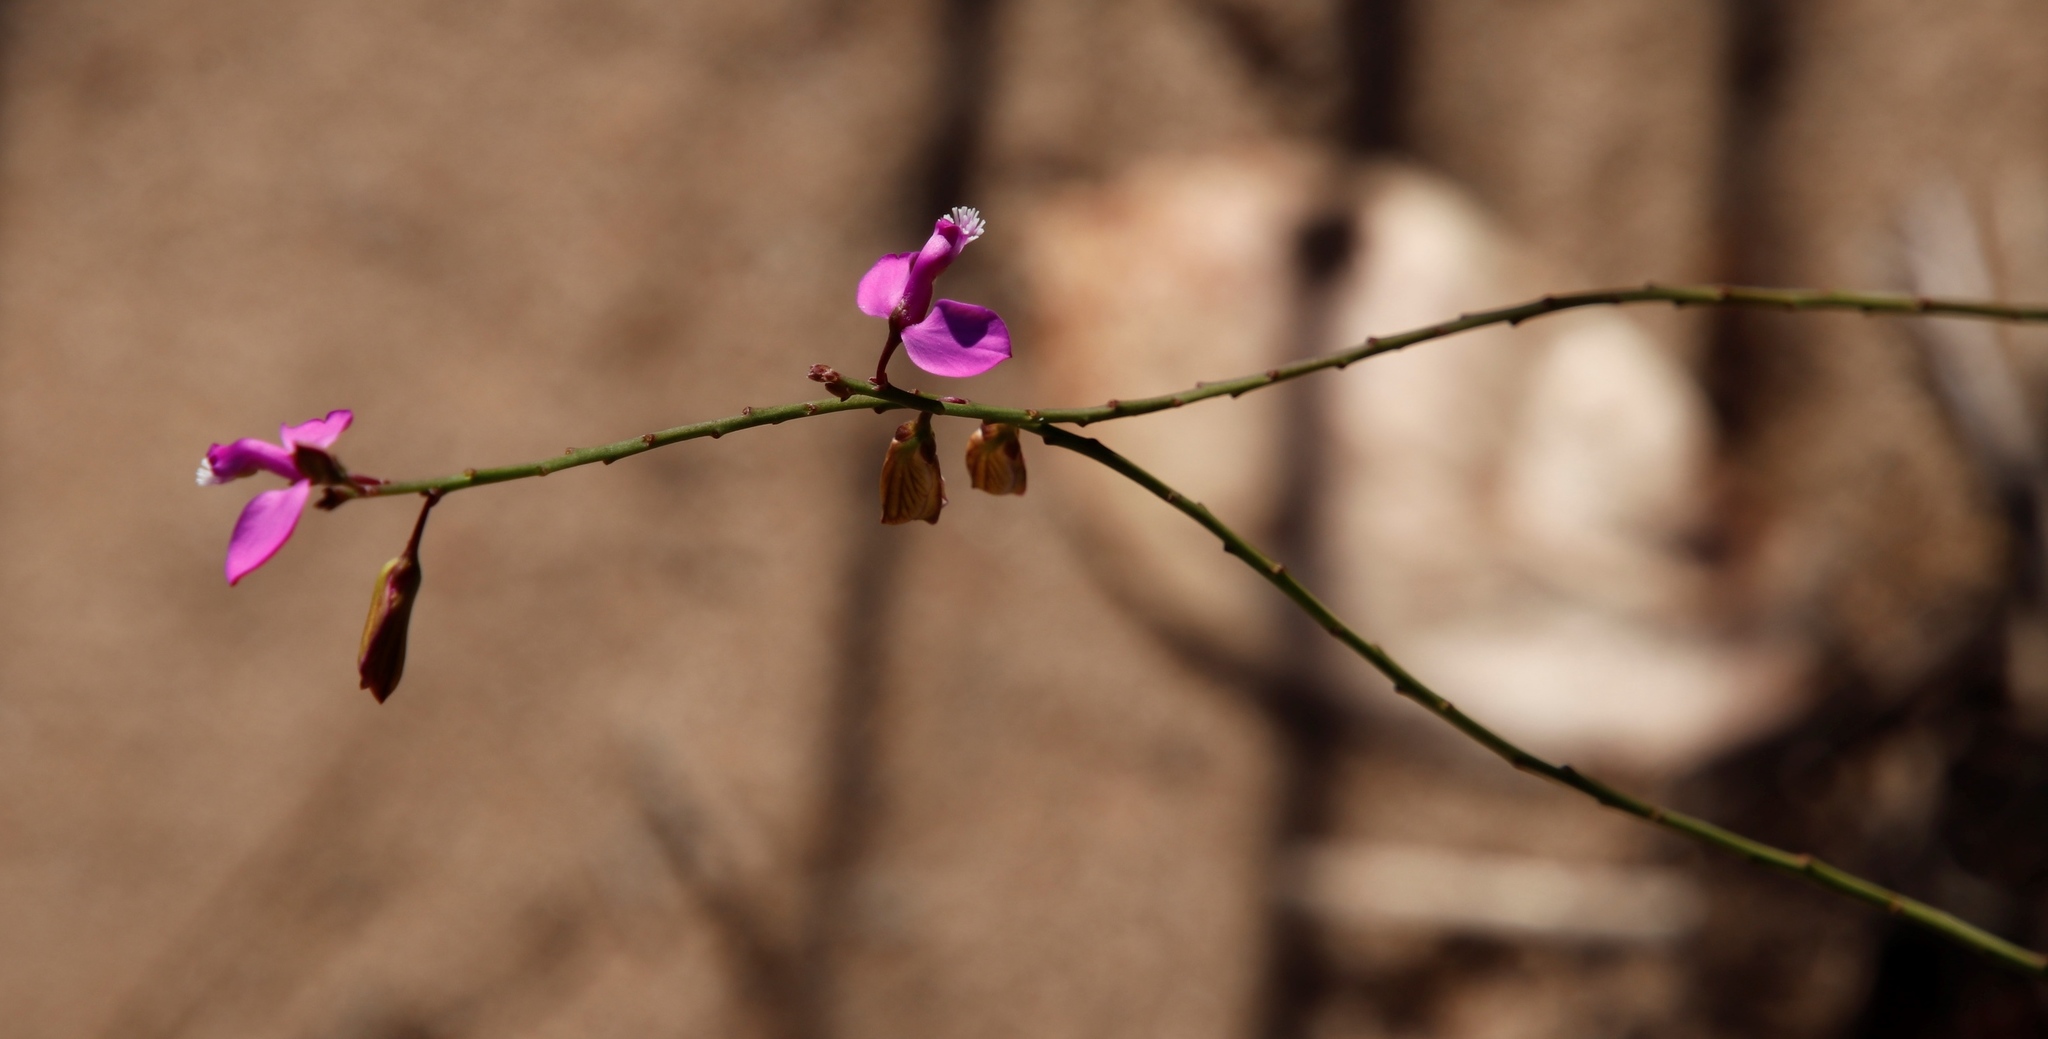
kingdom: Plantae
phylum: Tracheophyta
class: Magnoliopsida
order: Fabales
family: Polygalaceae
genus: Polygala
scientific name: Polygala garcini
